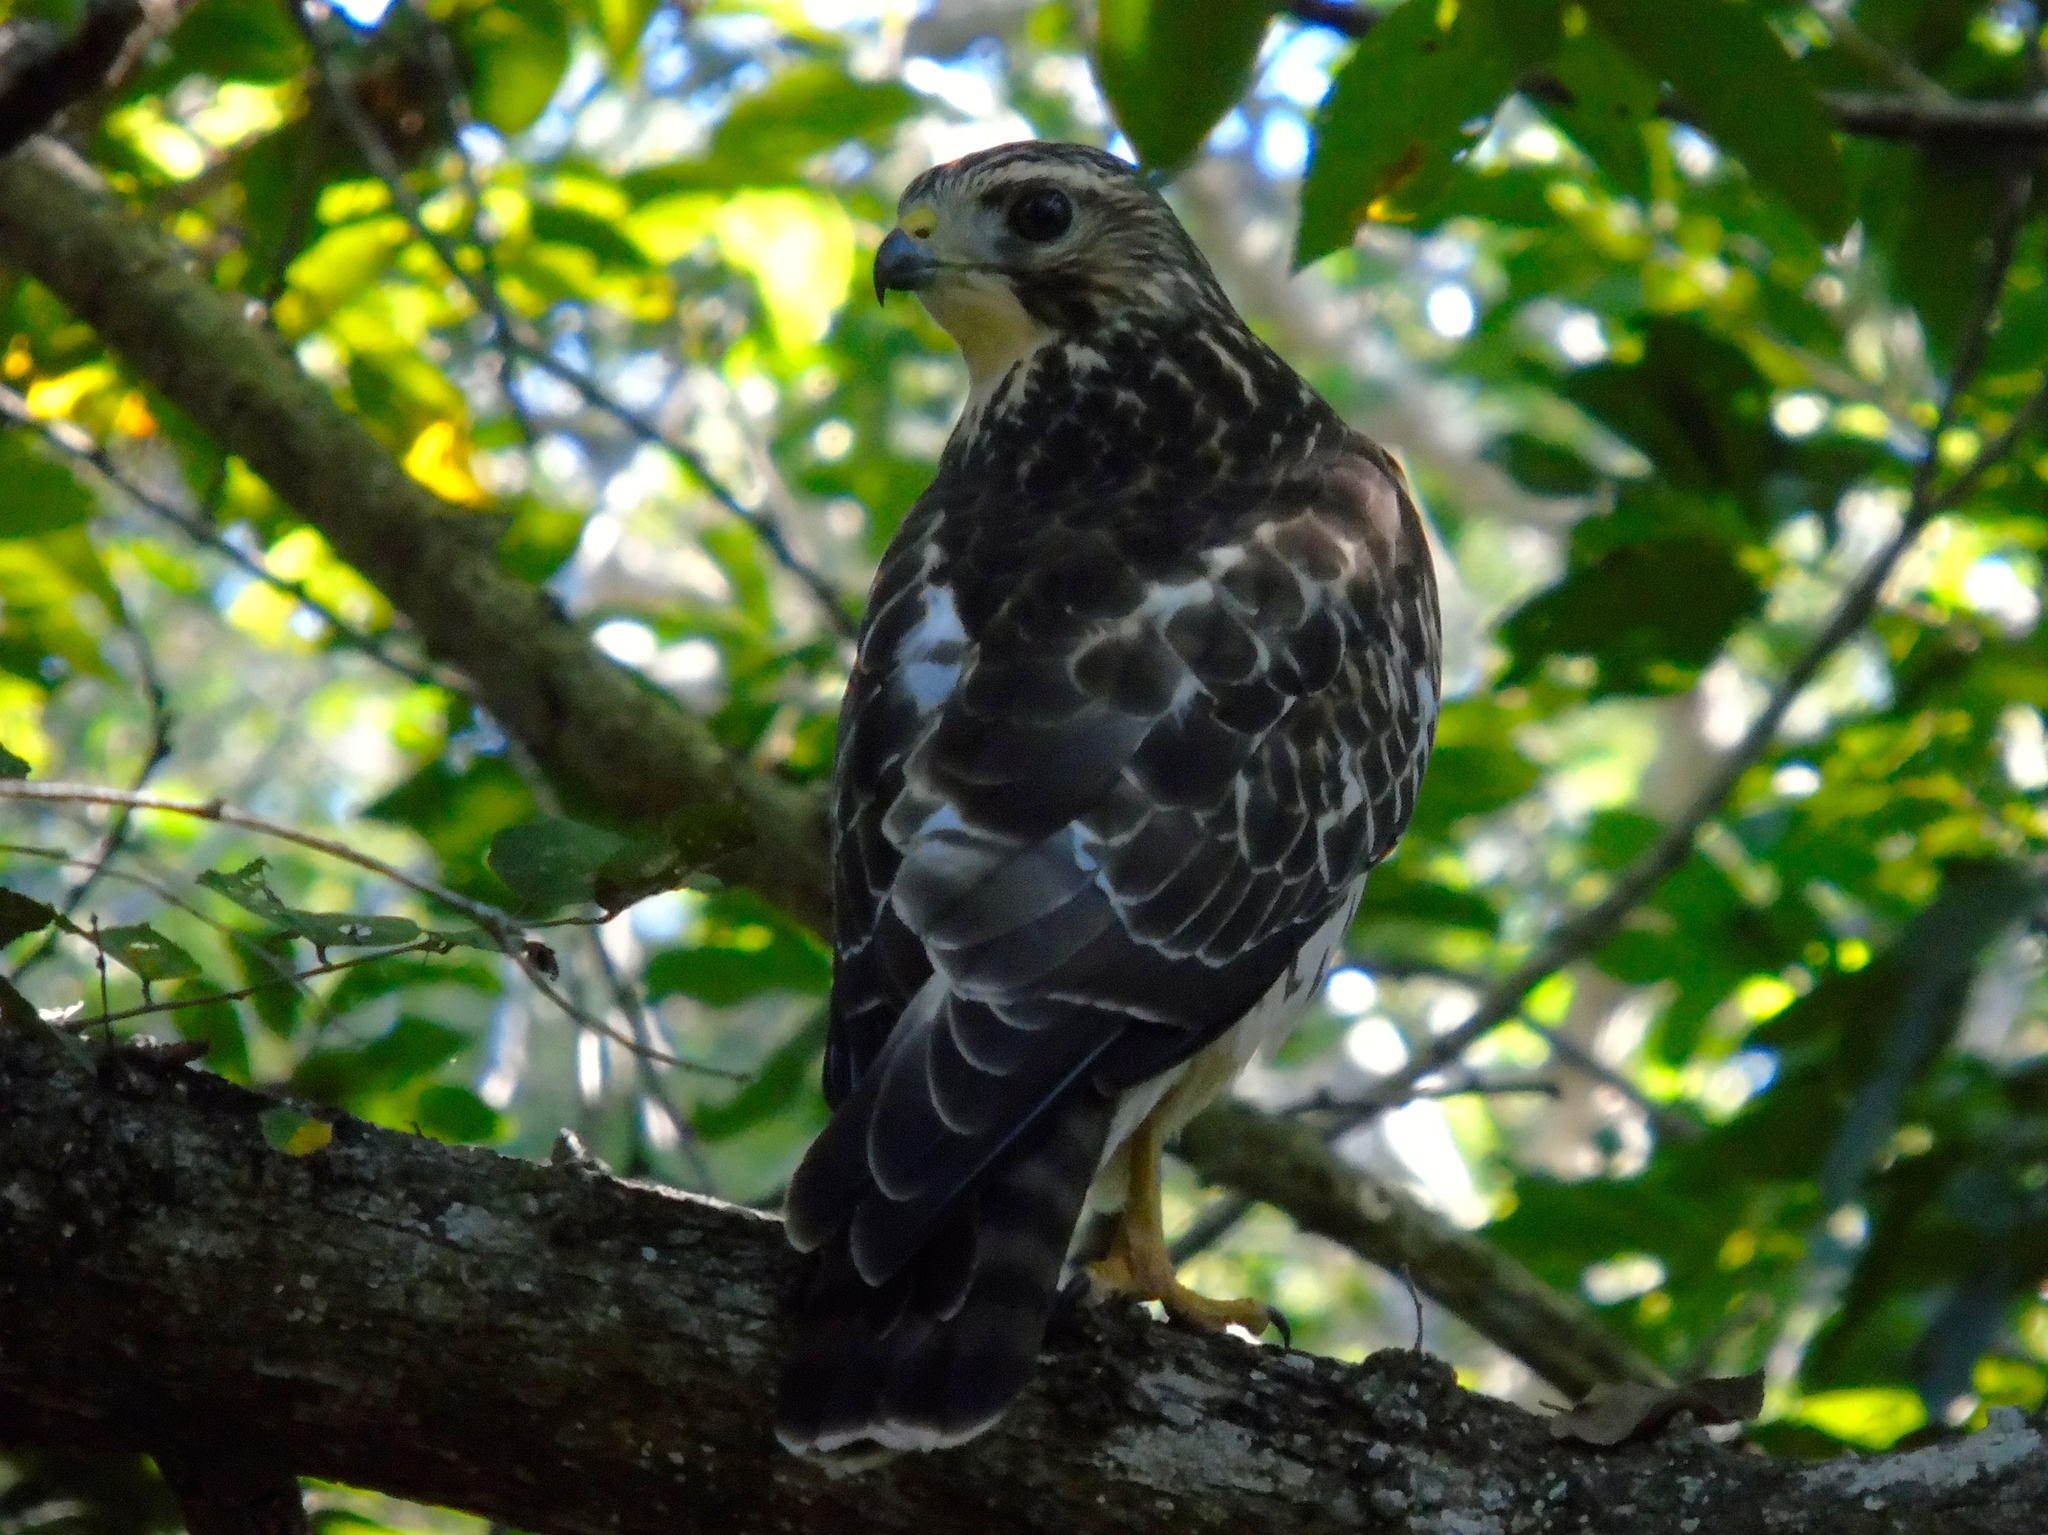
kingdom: Animalia
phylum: Chordata
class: Aves
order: Accipitriformes
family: Accipitridae
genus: Buteo
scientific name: Buteo platypterus
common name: Broad-winged hawk
